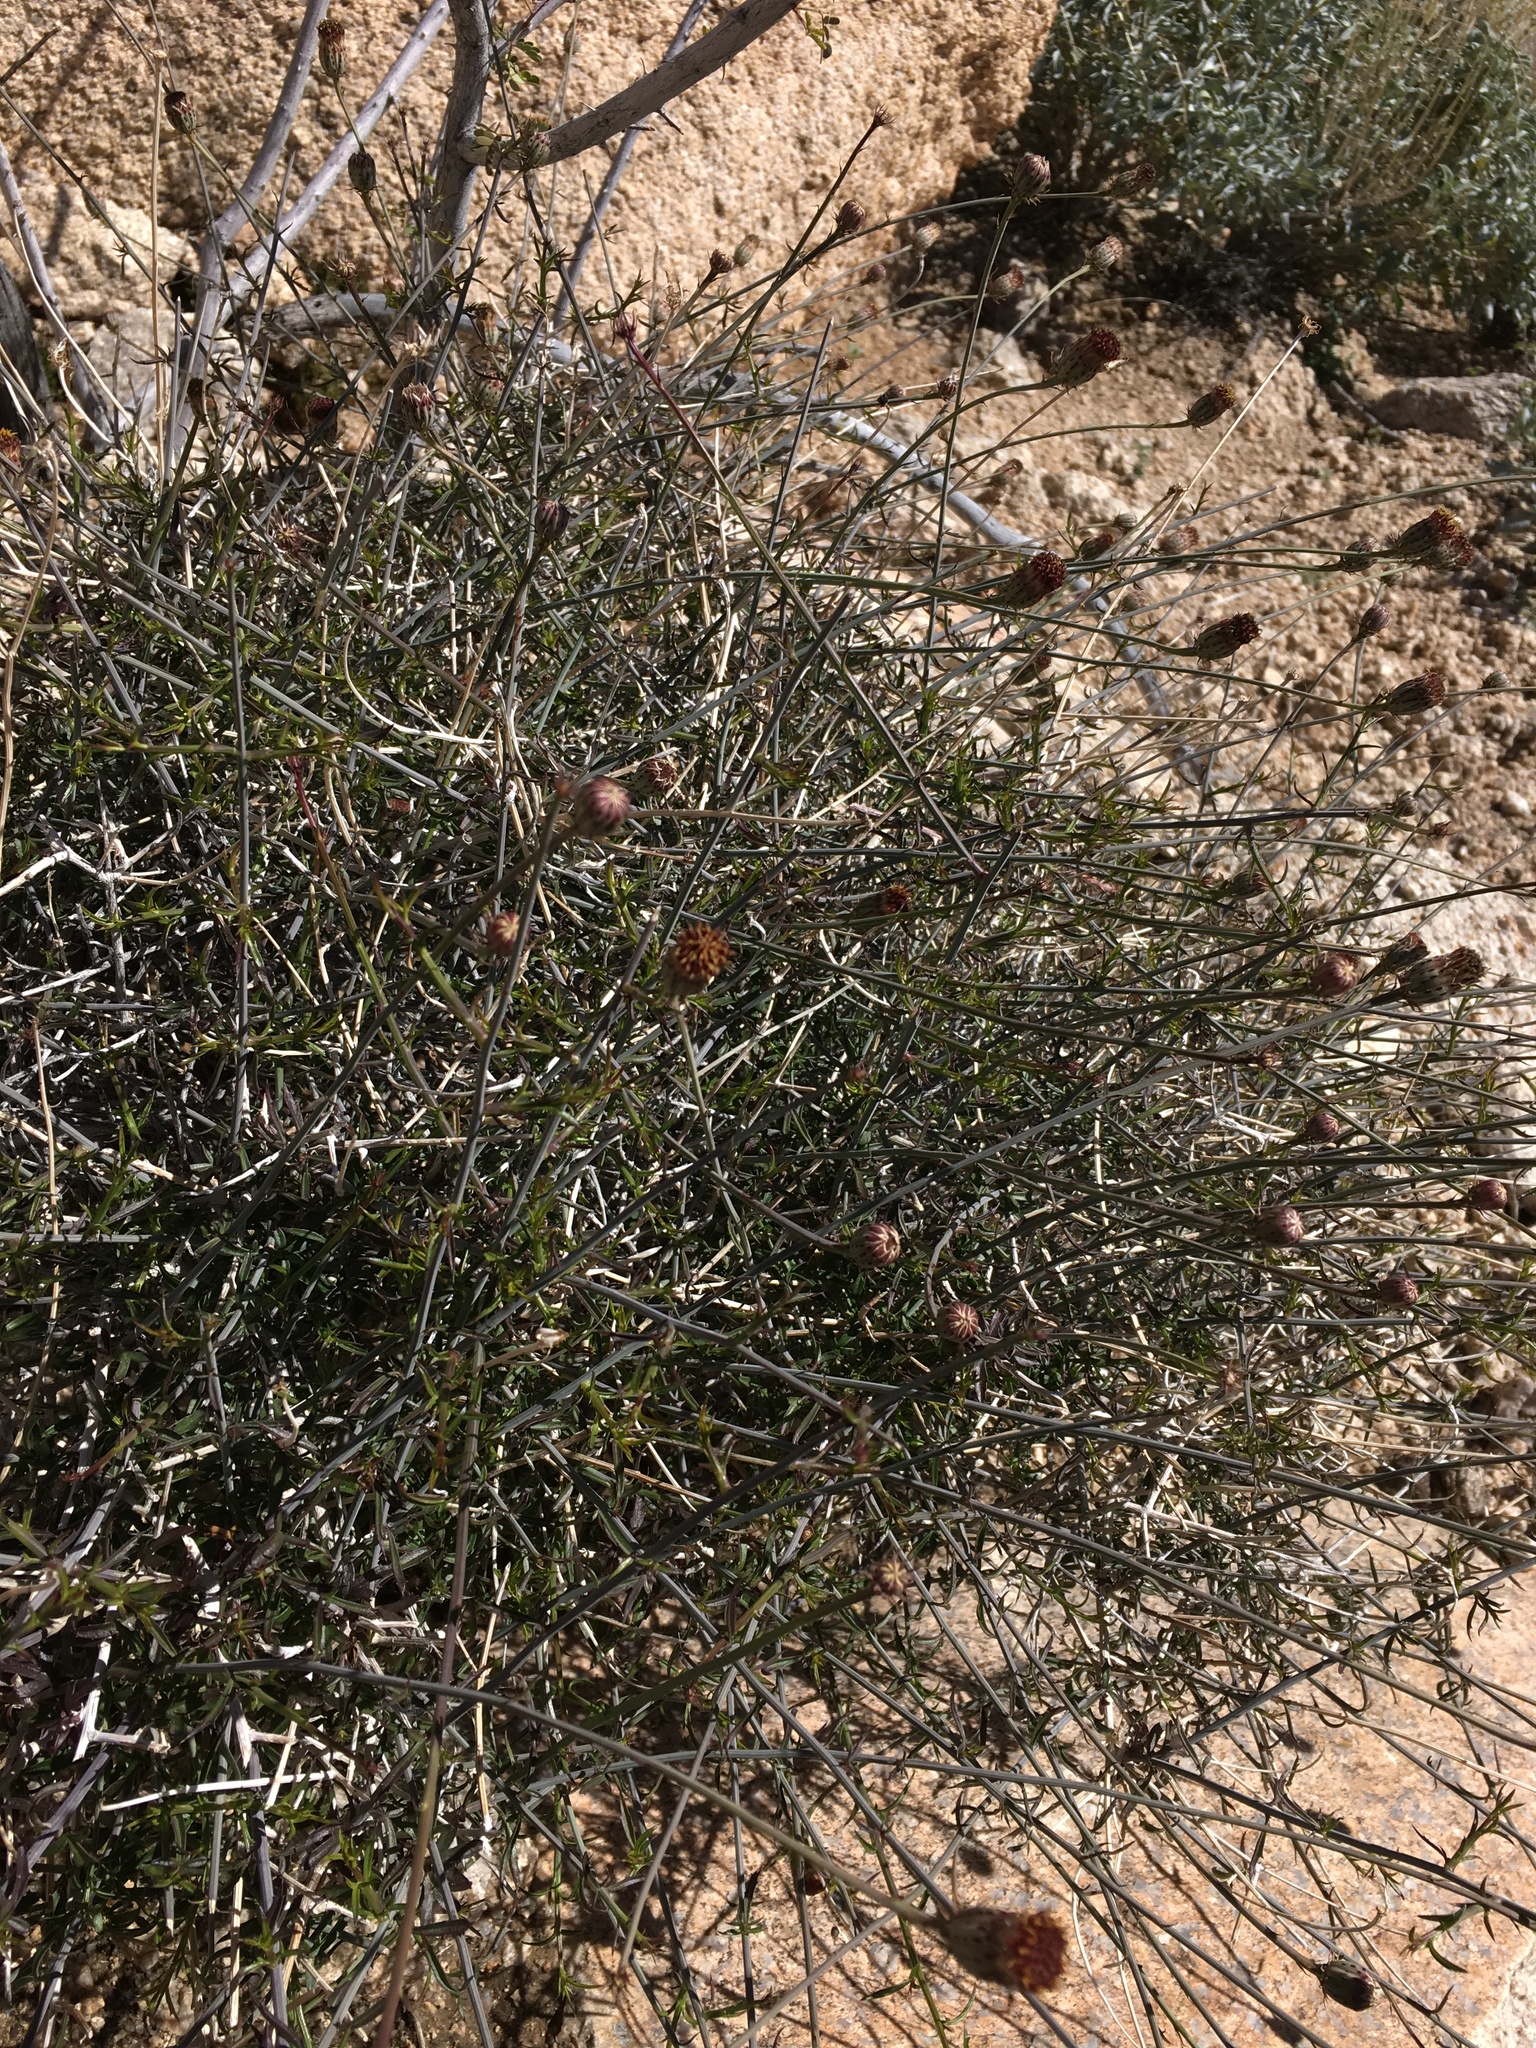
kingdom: Plantae
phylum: Tracheophyta
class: Magnoliopsida
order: Asterales
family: Asteraceae
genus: Adenophyllum
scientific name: Adenophyllum porophylloides
